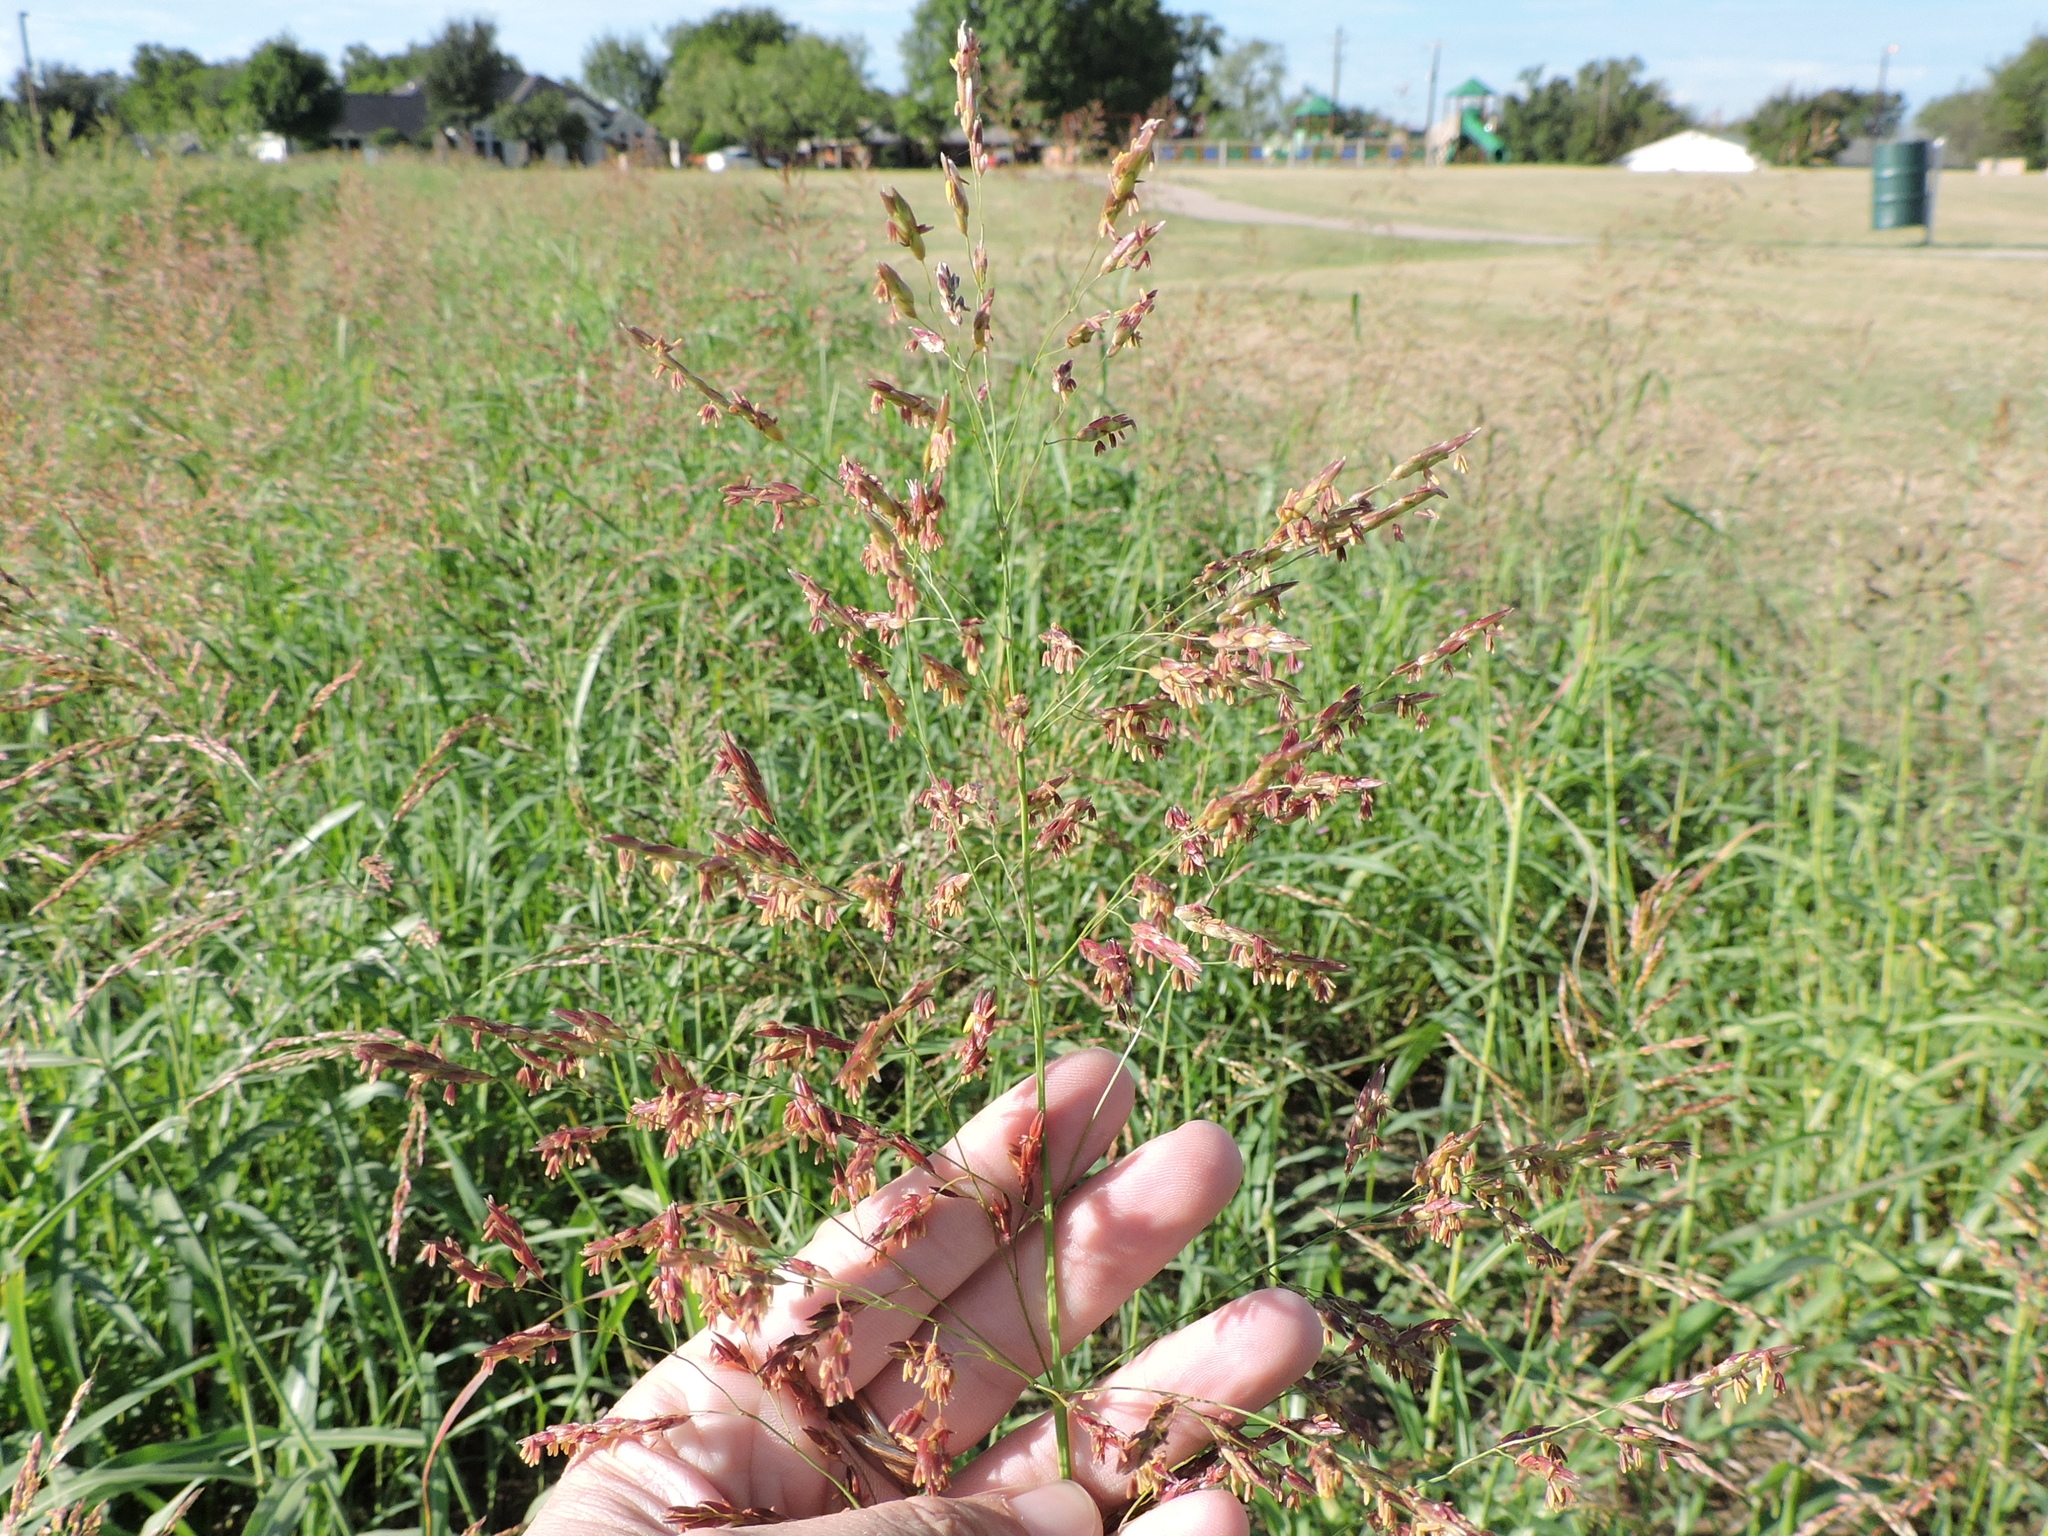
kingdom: Plantae
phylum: Tracheophyta
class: Liliopsida
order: Poales
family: Poaceae
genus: Sorghum
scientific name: Sorghum halepense
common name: Johnson-grass
